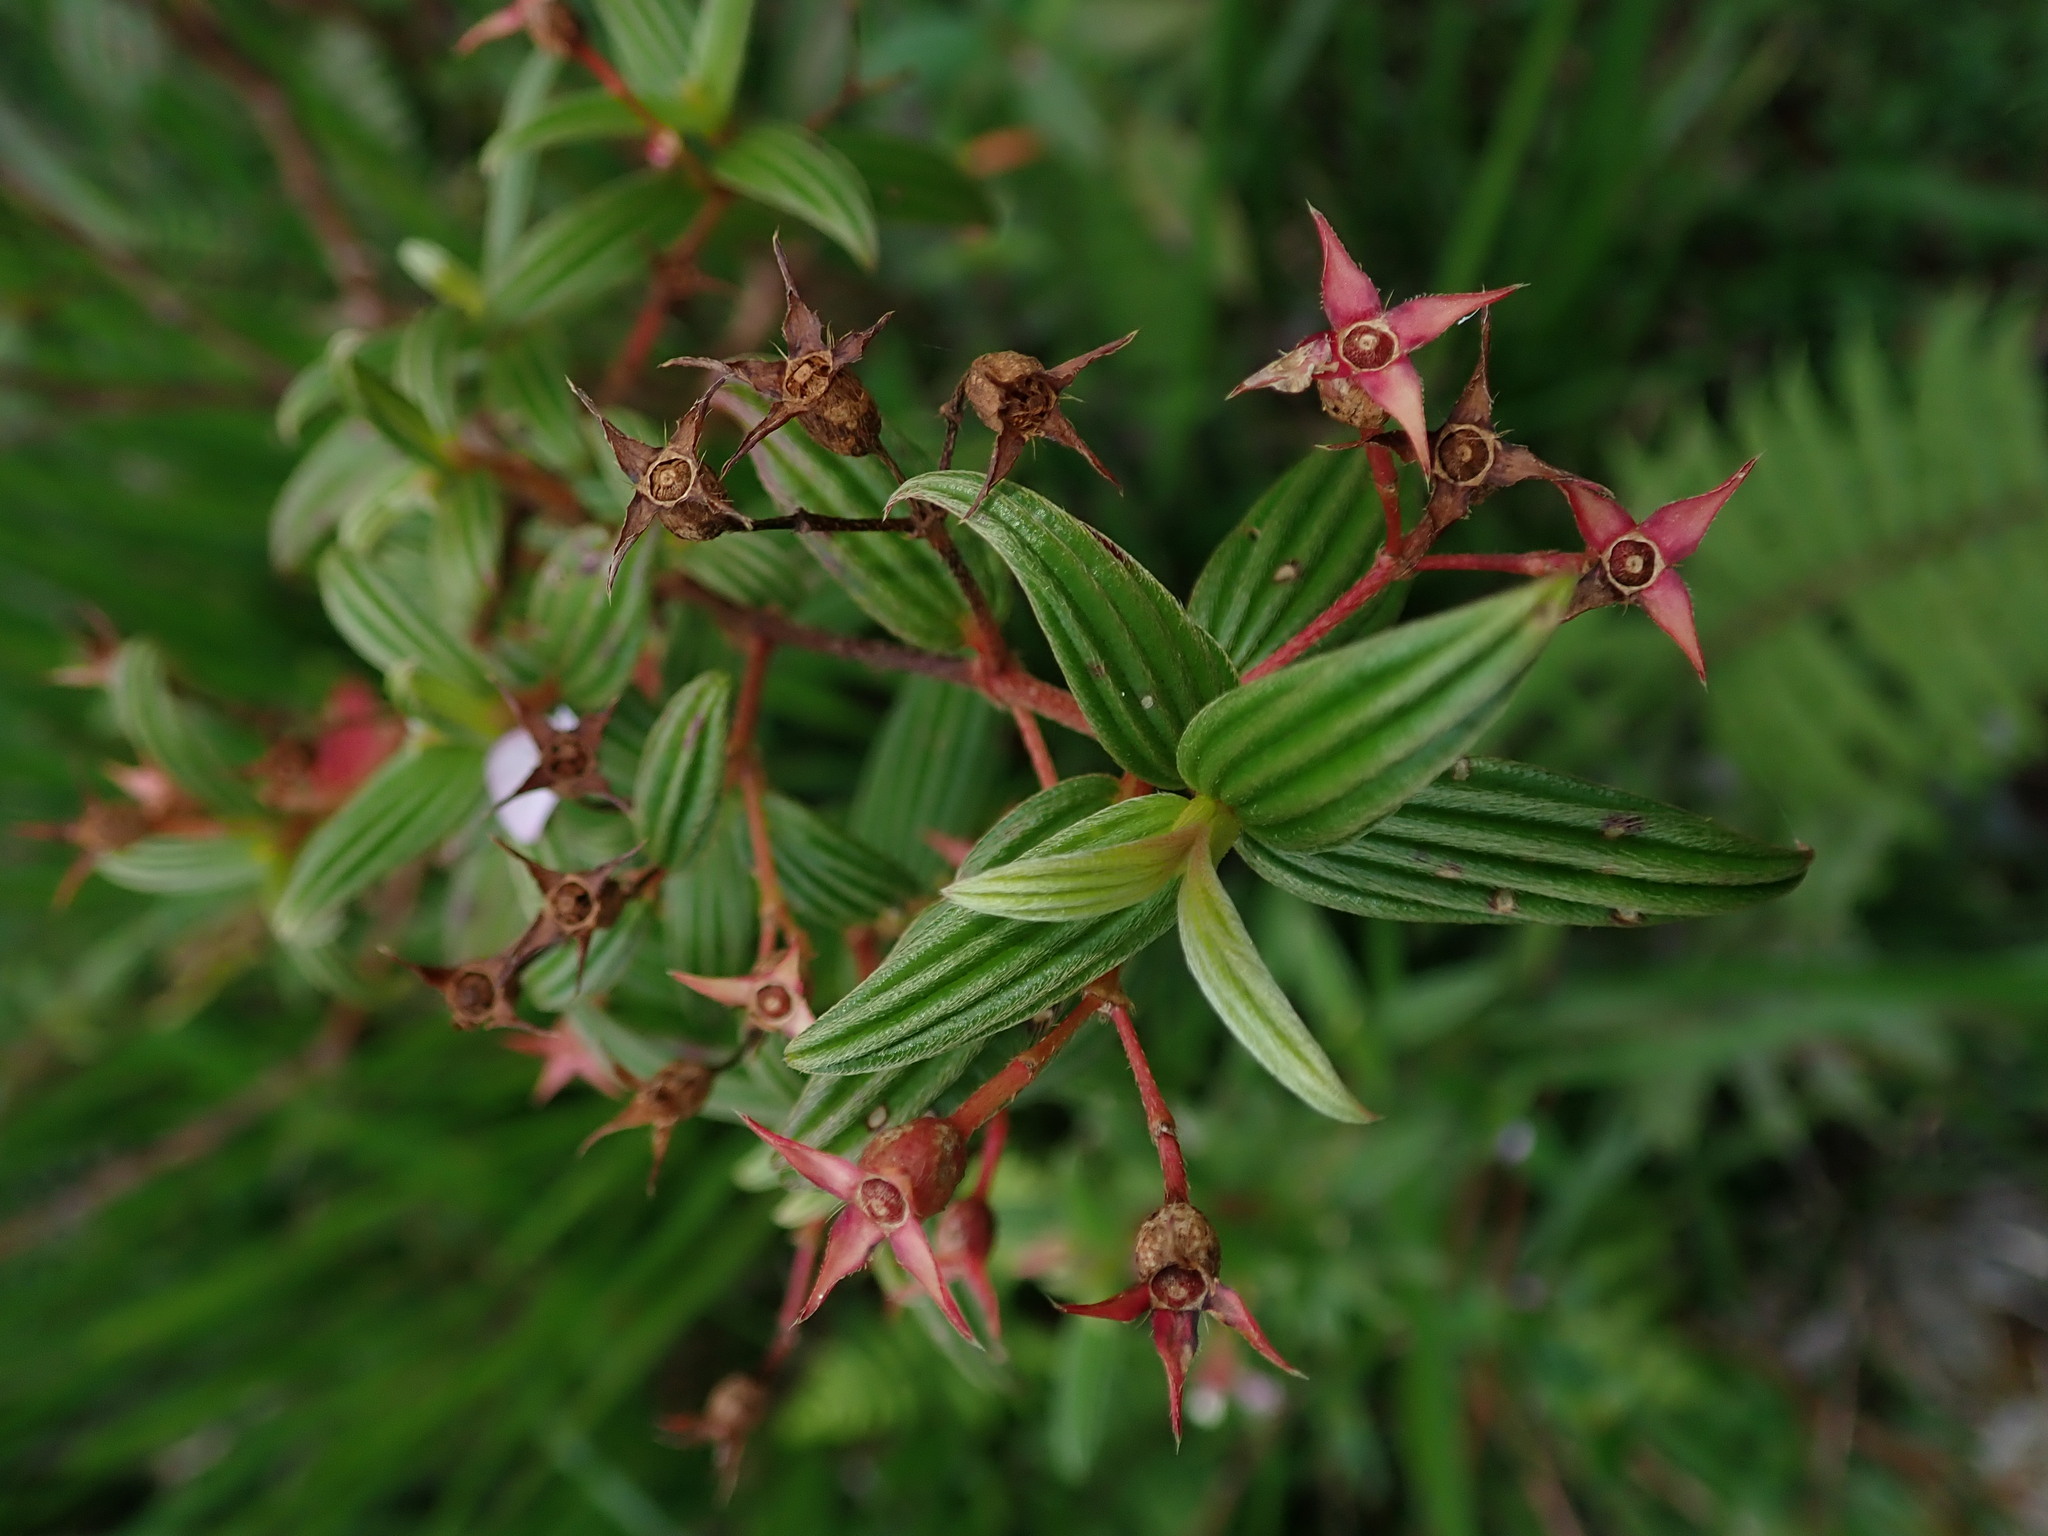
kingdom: Plantae
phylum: Tracheophyta
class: Magnoliopsida
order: Myrtales
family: Melastomataceae
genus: Monochaetum
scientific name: Monochaetum lineatum
